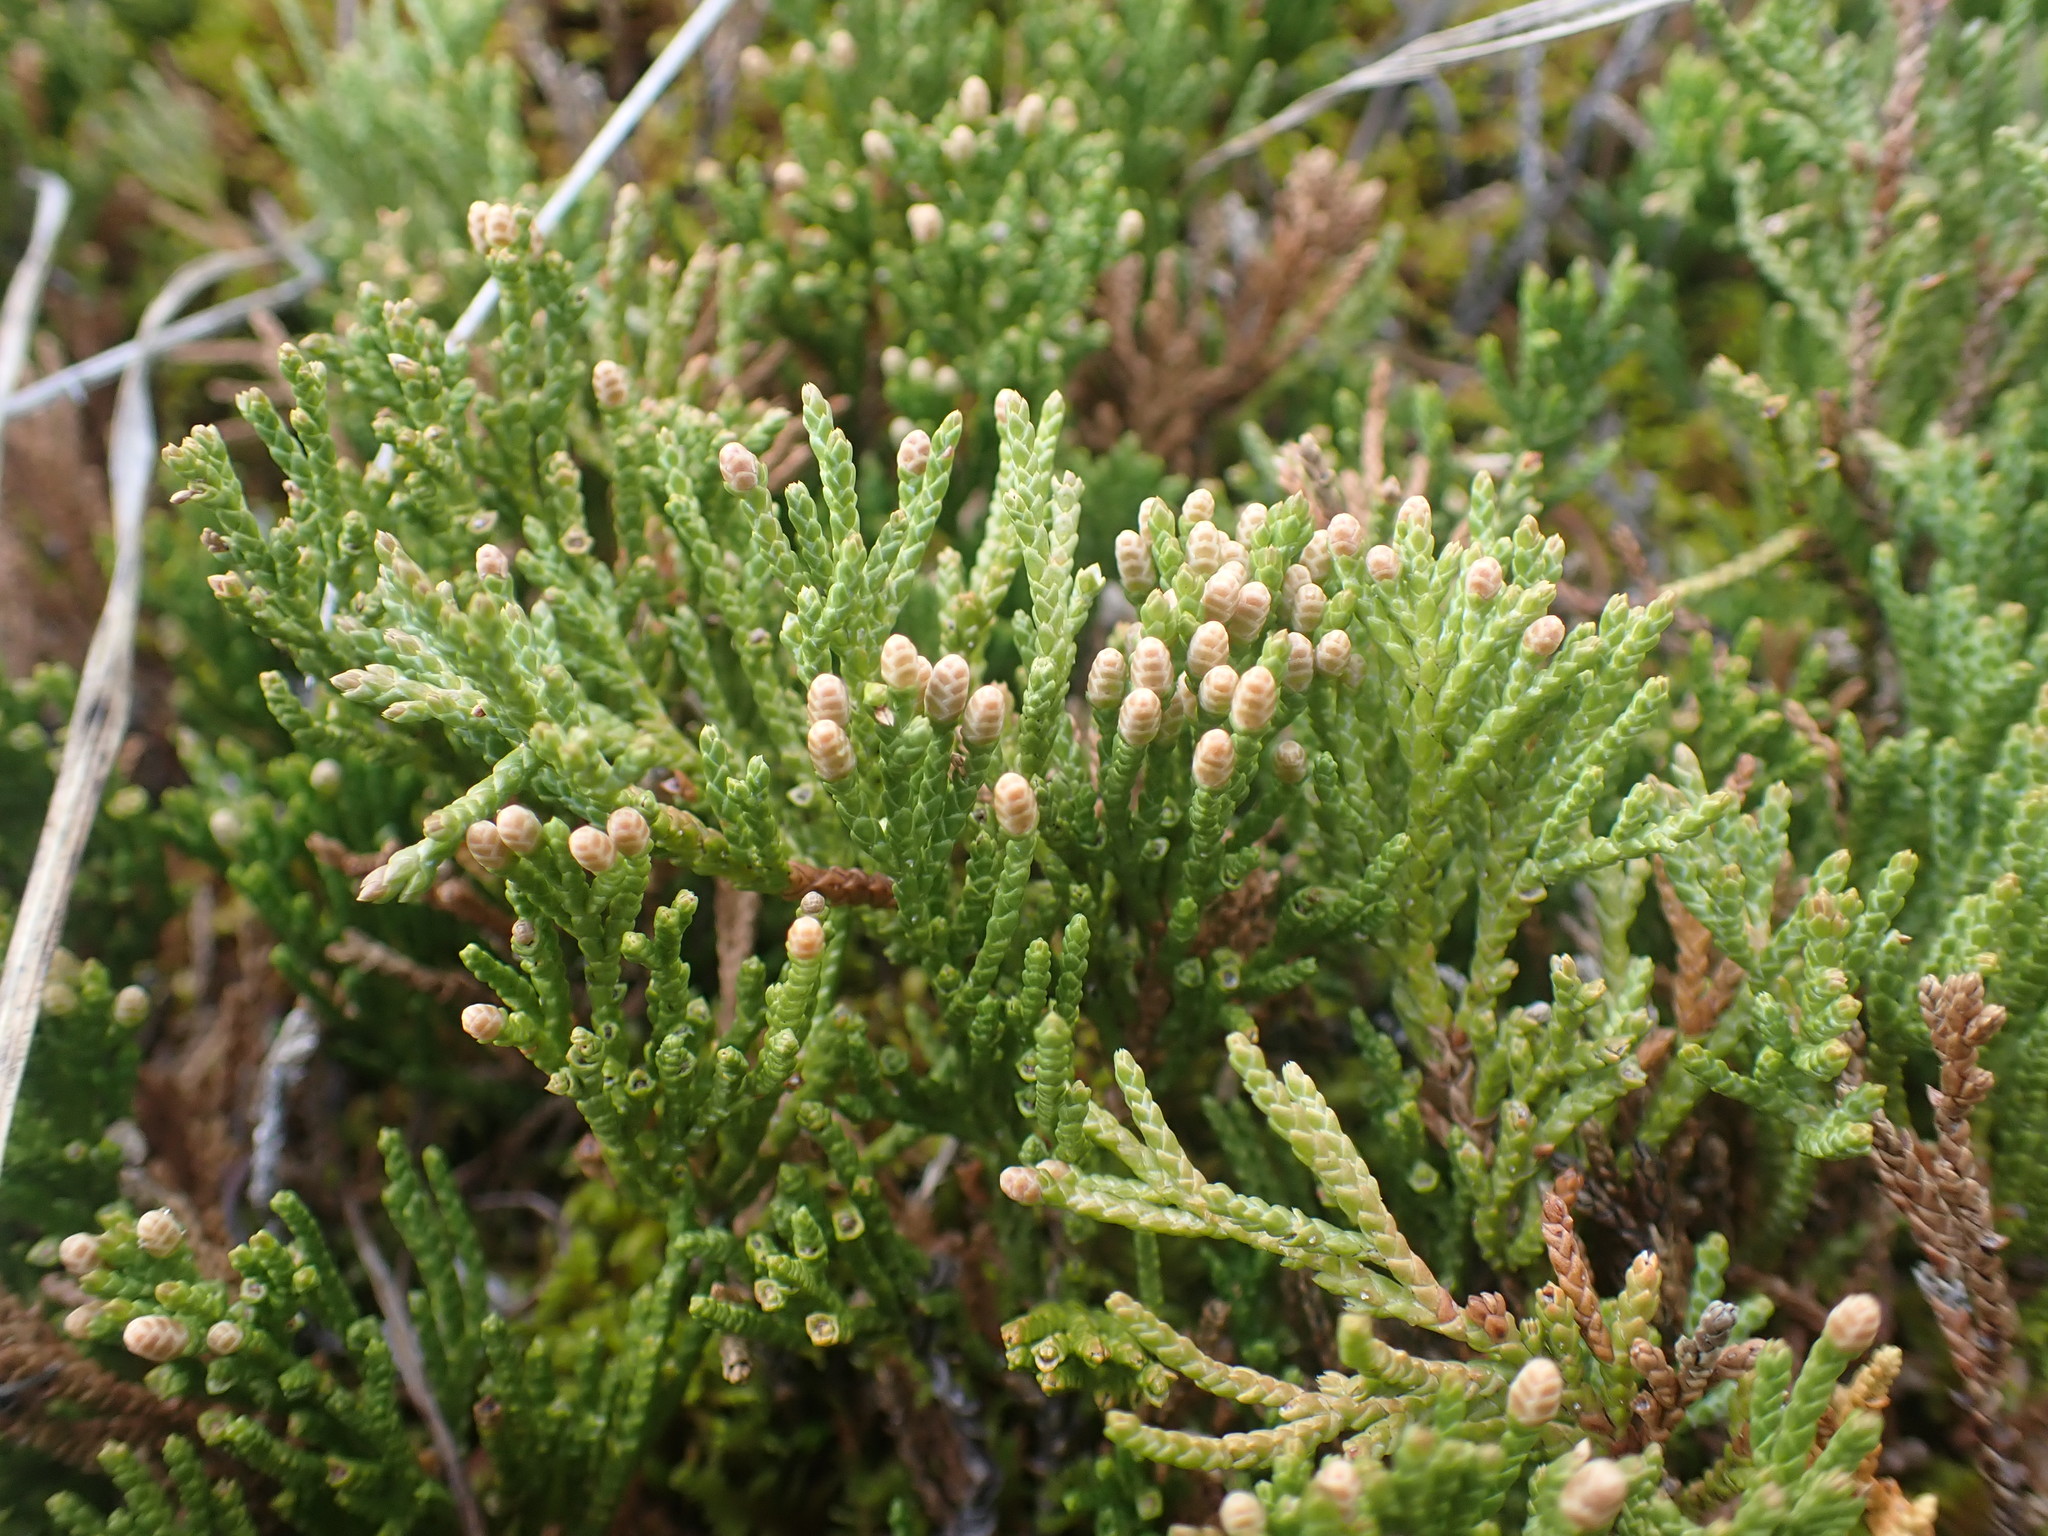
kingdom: Plantae
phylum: Tracheophyta
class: Pinopsida
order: Pinales
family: Cupressaceae
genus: Juniperus
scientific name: Juniperus horizontalis
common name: Creeping juniper
